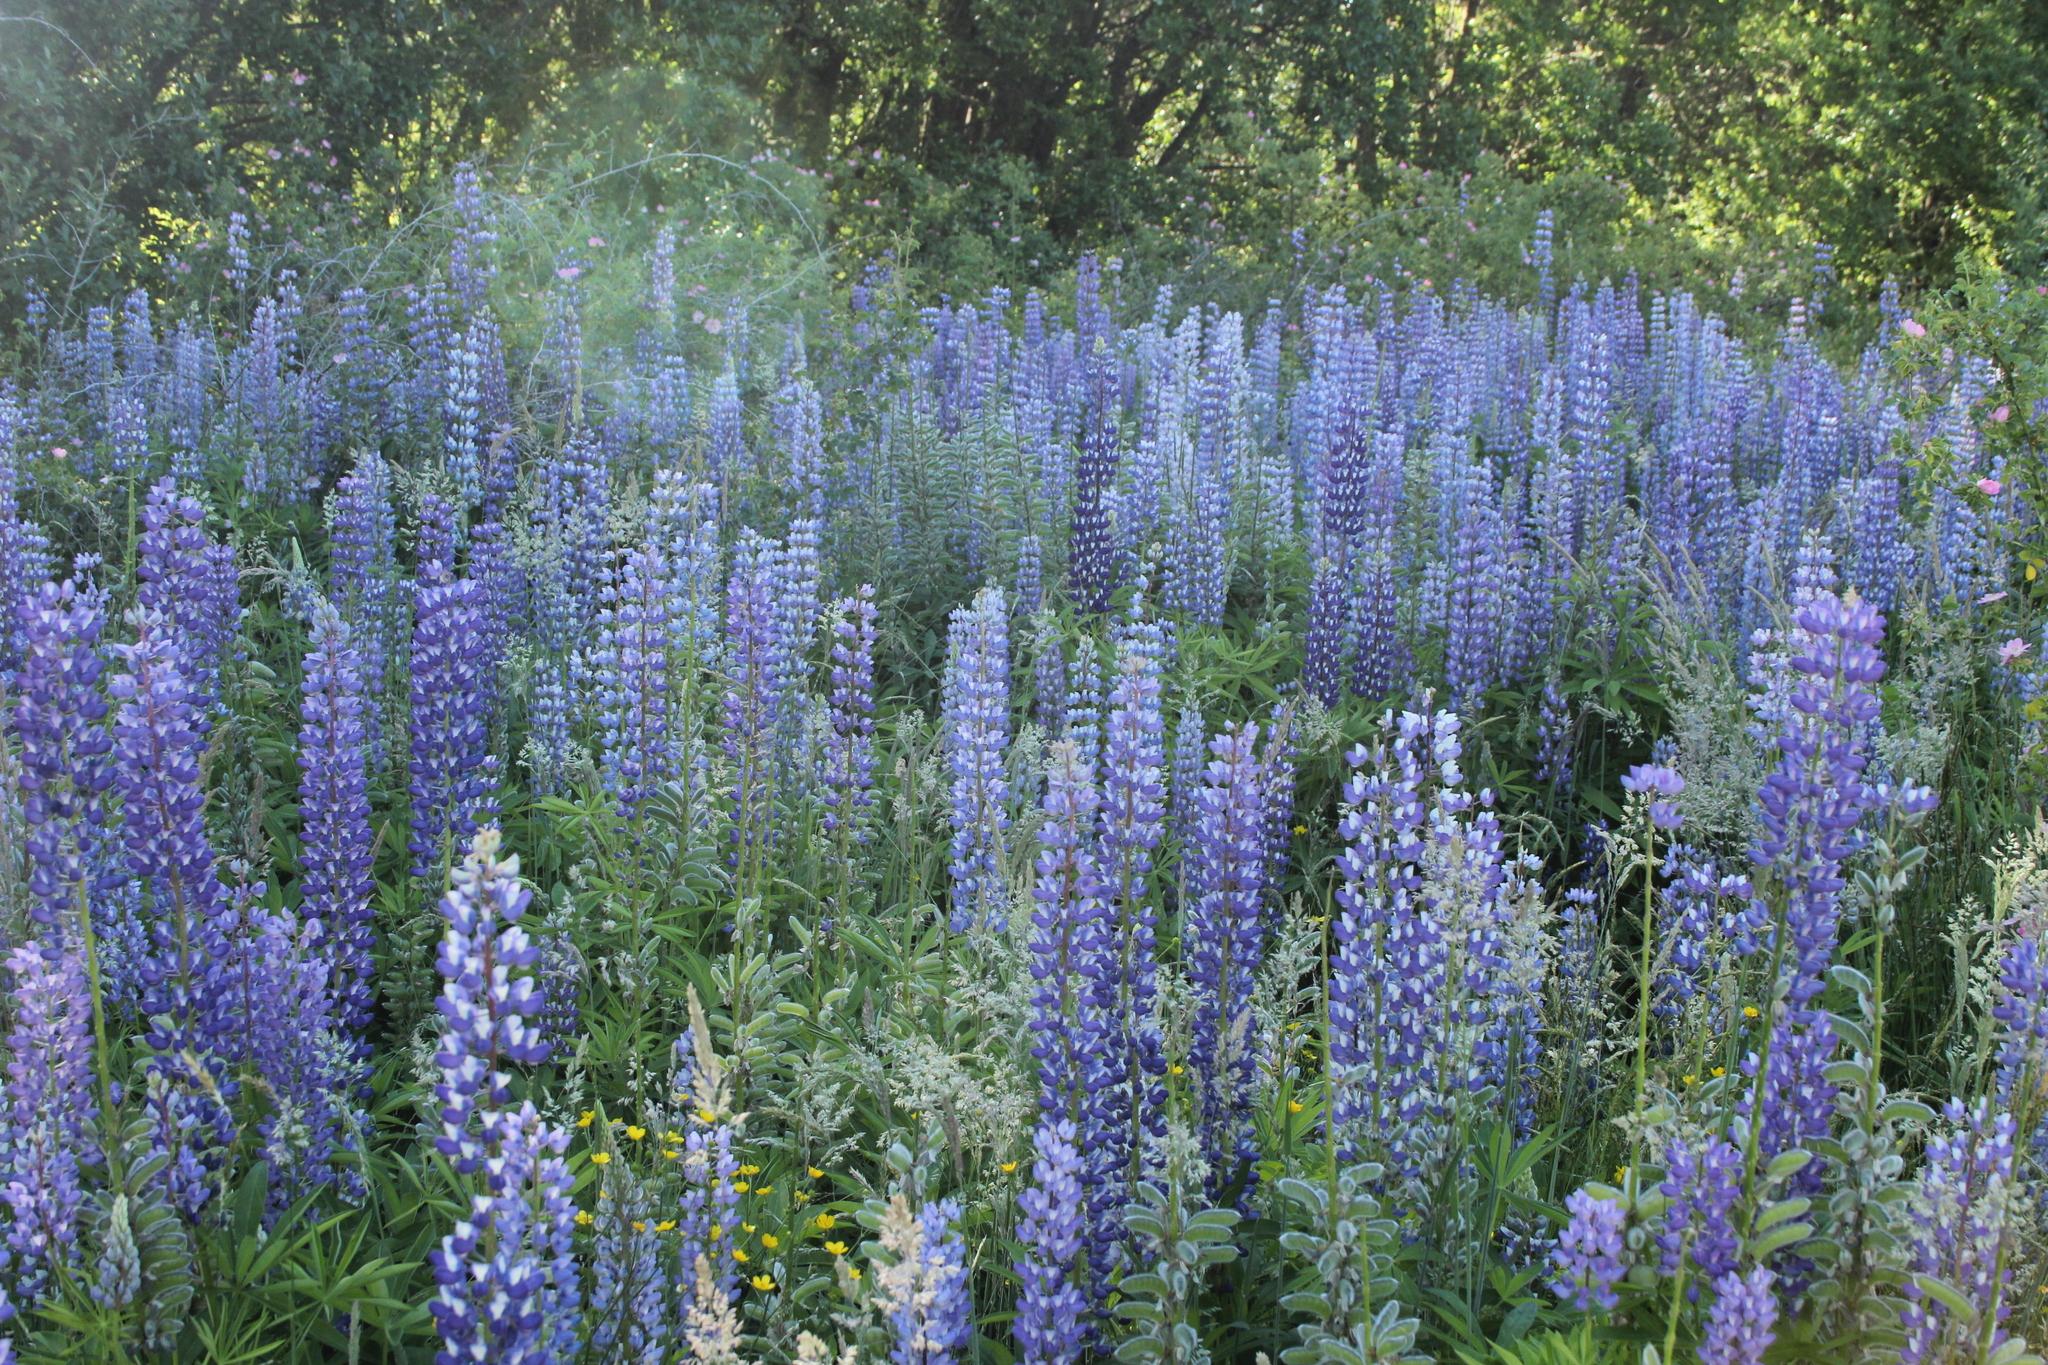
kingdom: Plantae
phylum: Tracheophyta
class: Magnoliopsida
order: Fabales
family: Fabaceae
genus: Lupinus
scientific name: Lupinus polyphyllus
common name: Garden lupin
